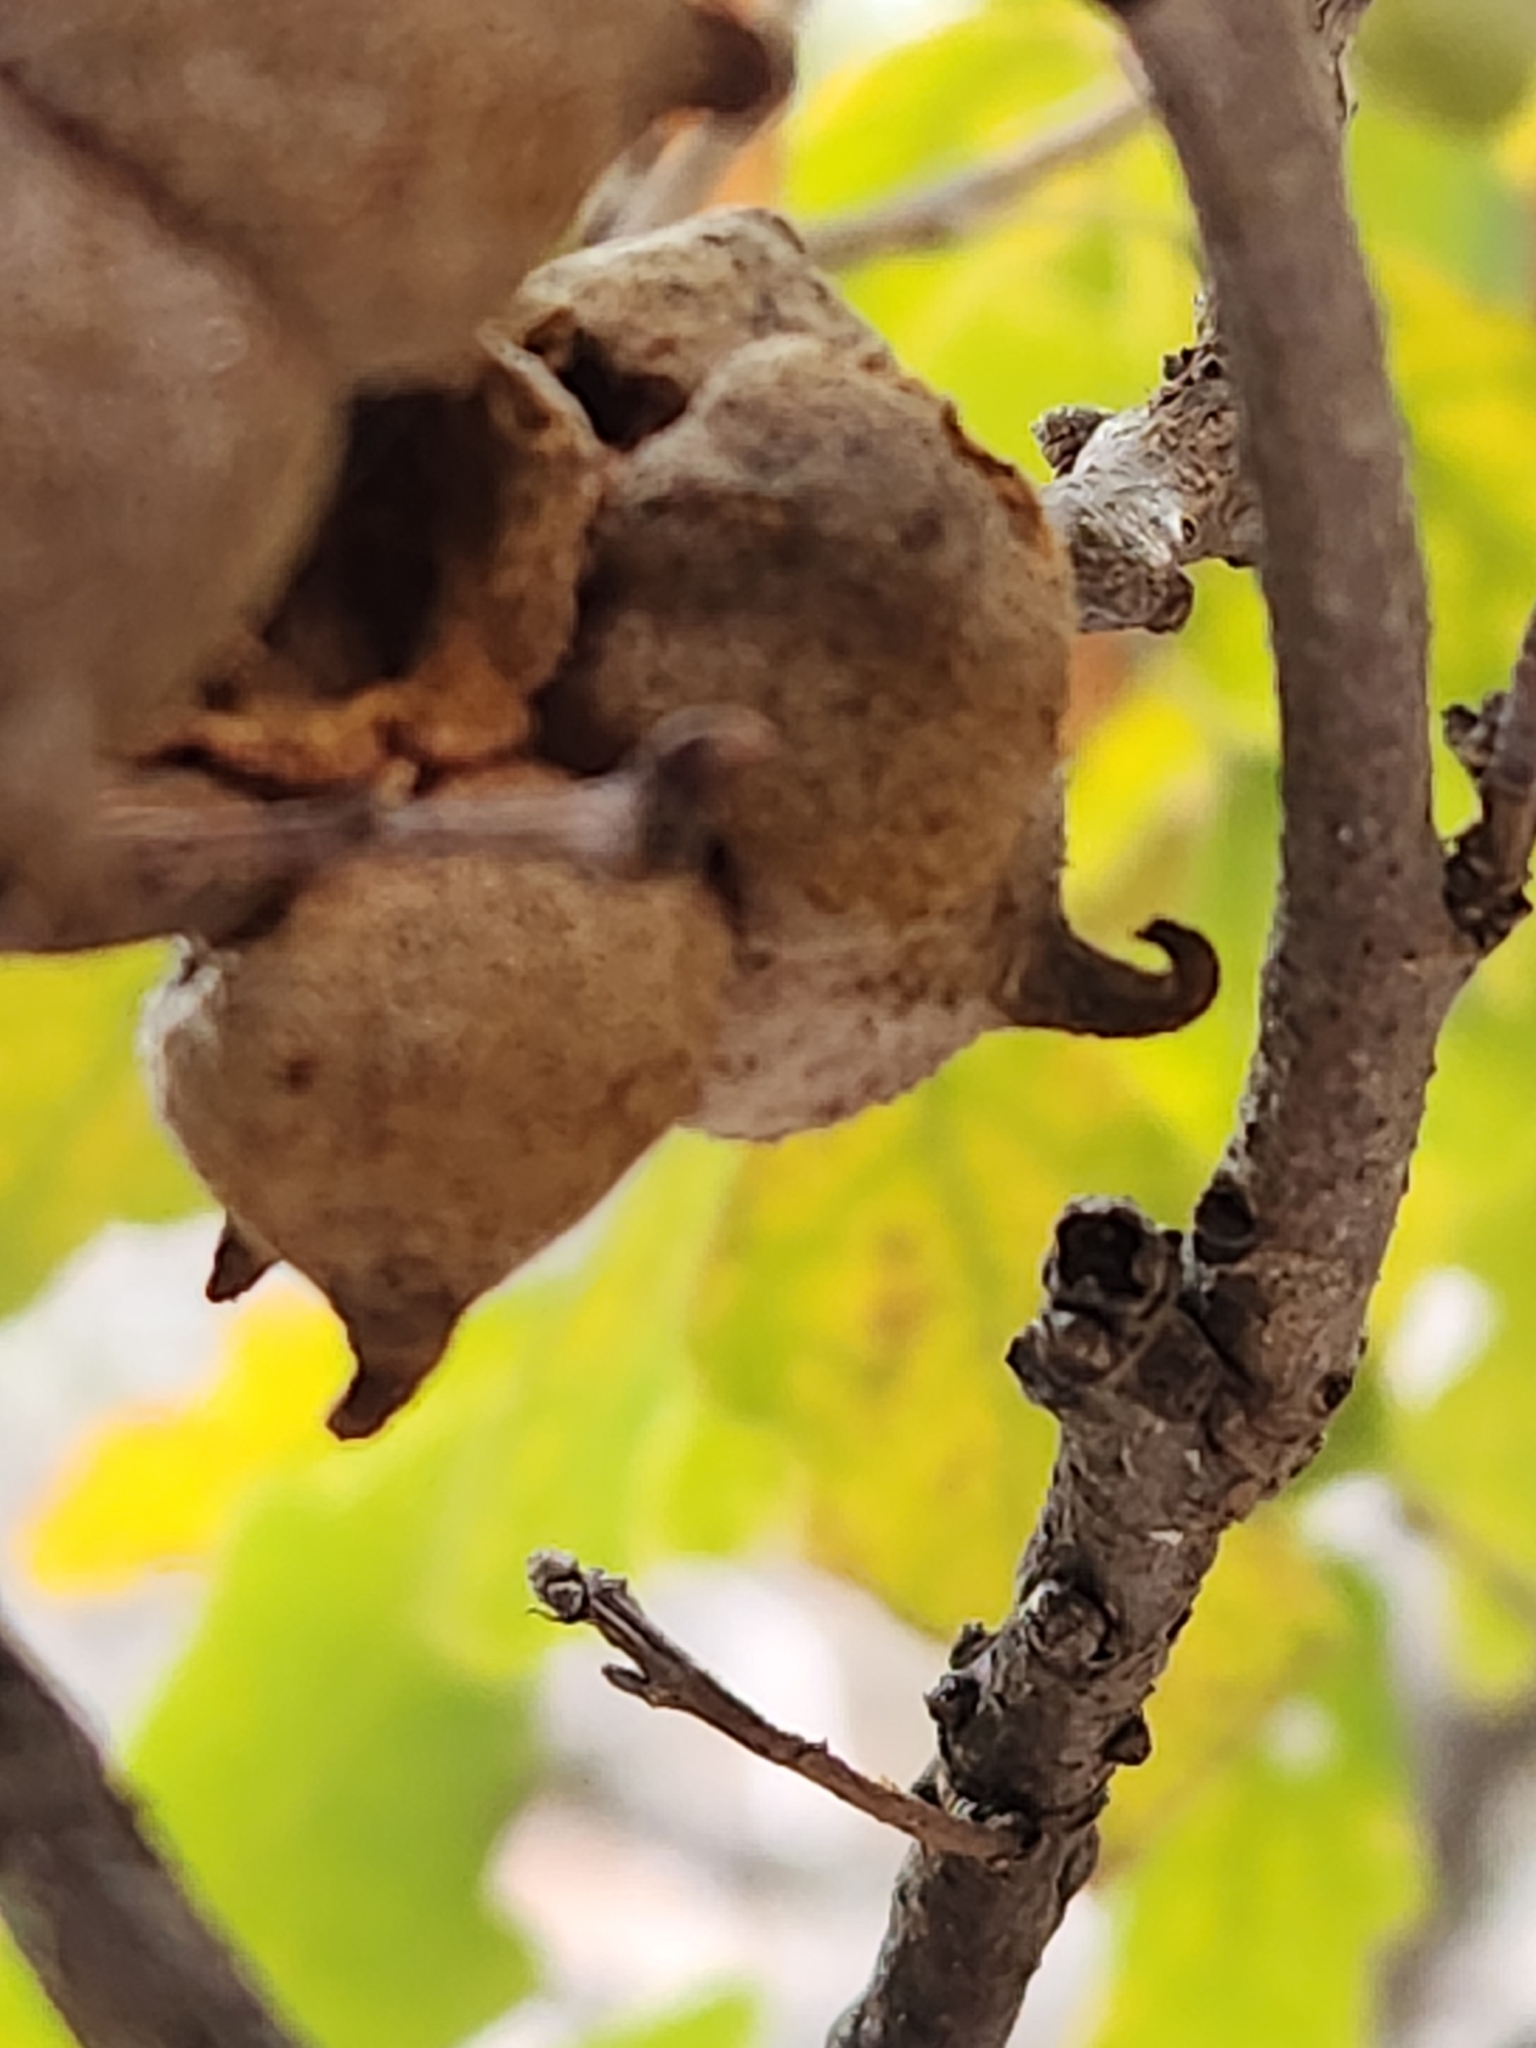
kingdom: Animalia
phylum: Arthropoda
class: Insecta
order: Hymenoptera
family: Cynipidae
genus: Disholcaspis
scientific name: Disholcaspis
